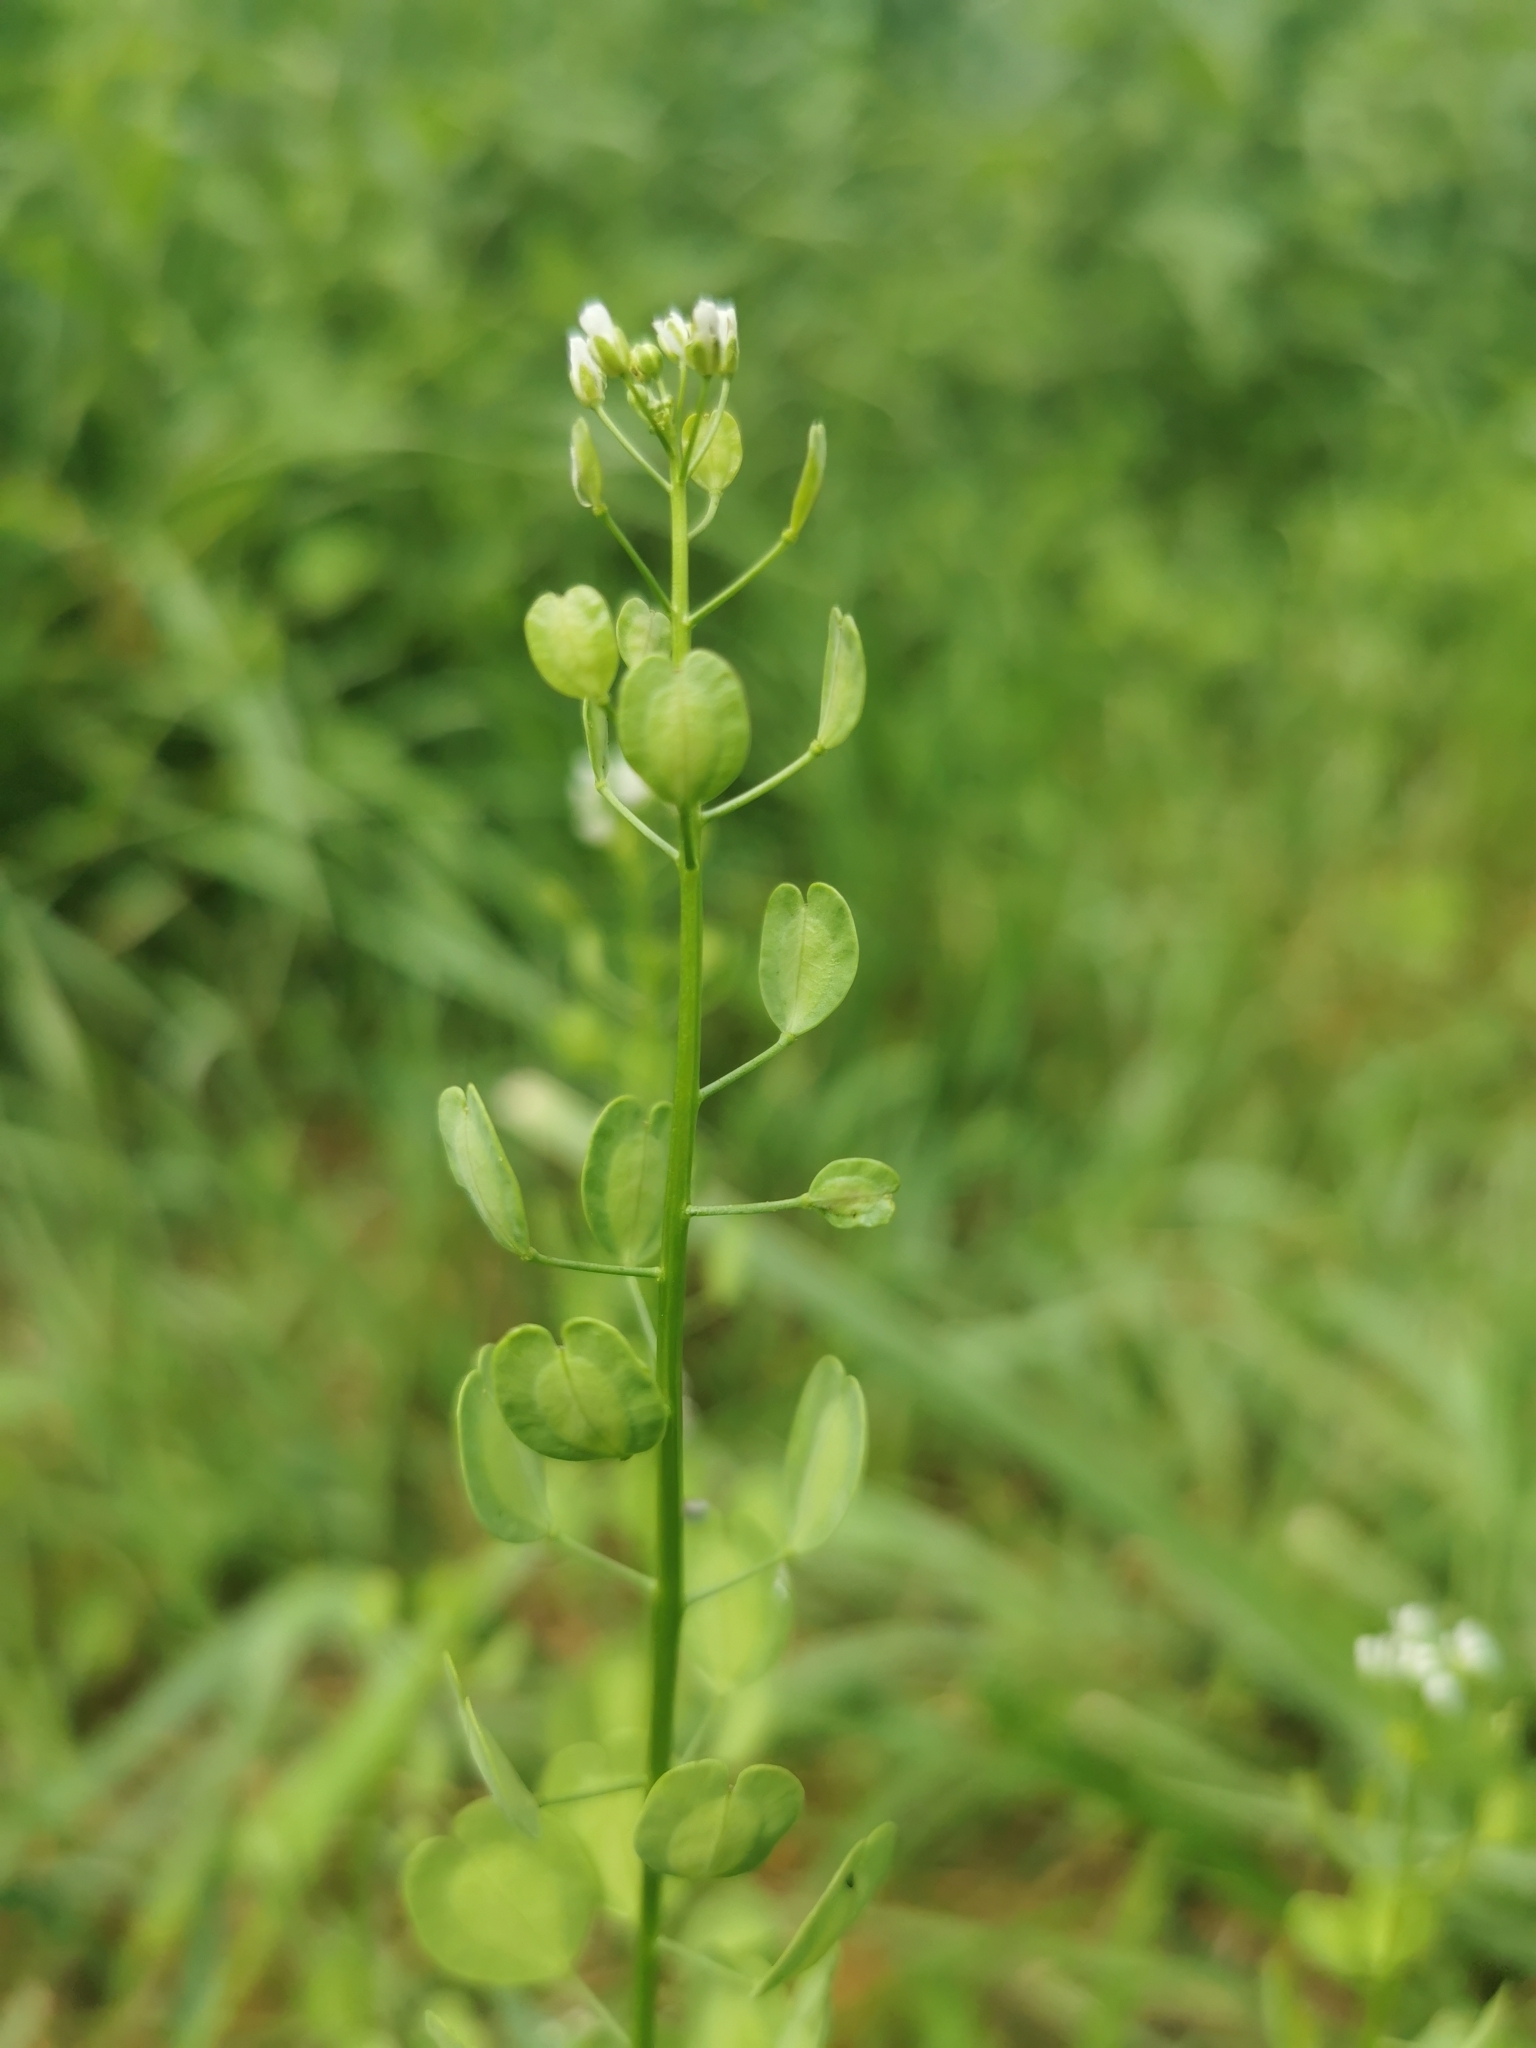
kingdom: Plantae
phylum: Tracheophyta
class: Magnoliopsida
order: Brassicales
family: Brassicaceae
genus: Thlaspi
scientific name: Thlaspi arvense
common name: Field pennycress
